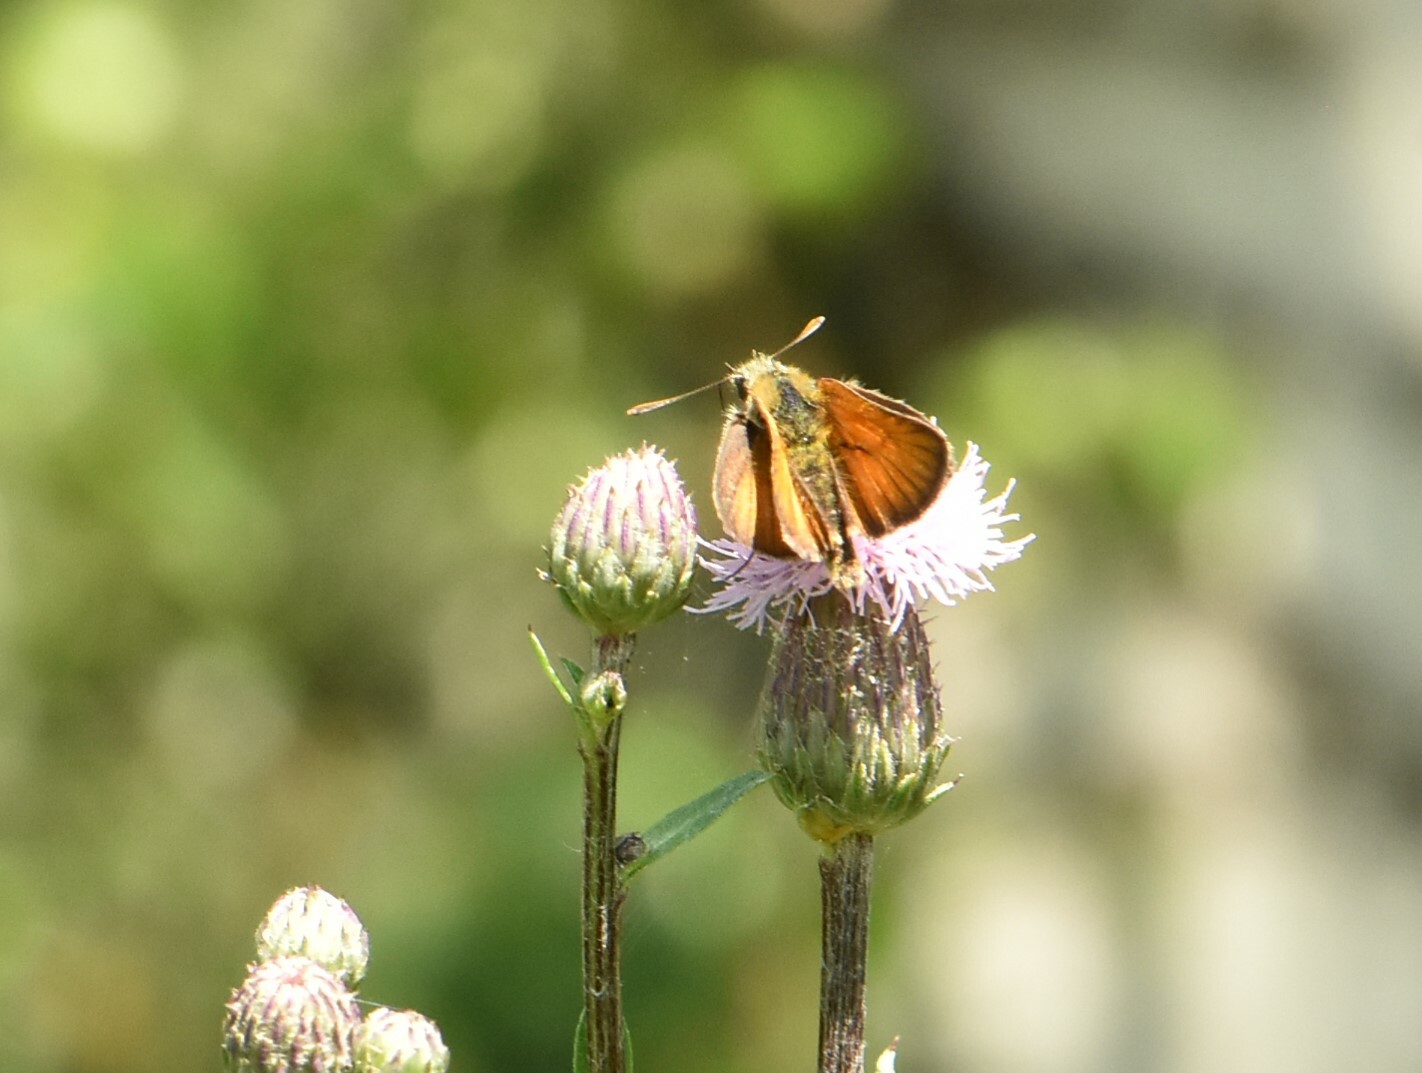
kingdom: Animalia
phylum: Arthropoda
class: Insecta
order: Lepidoptera
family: Hesperiidae
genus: Thymelicus
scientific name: Thymelicus sylvestris
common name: Small skipper
